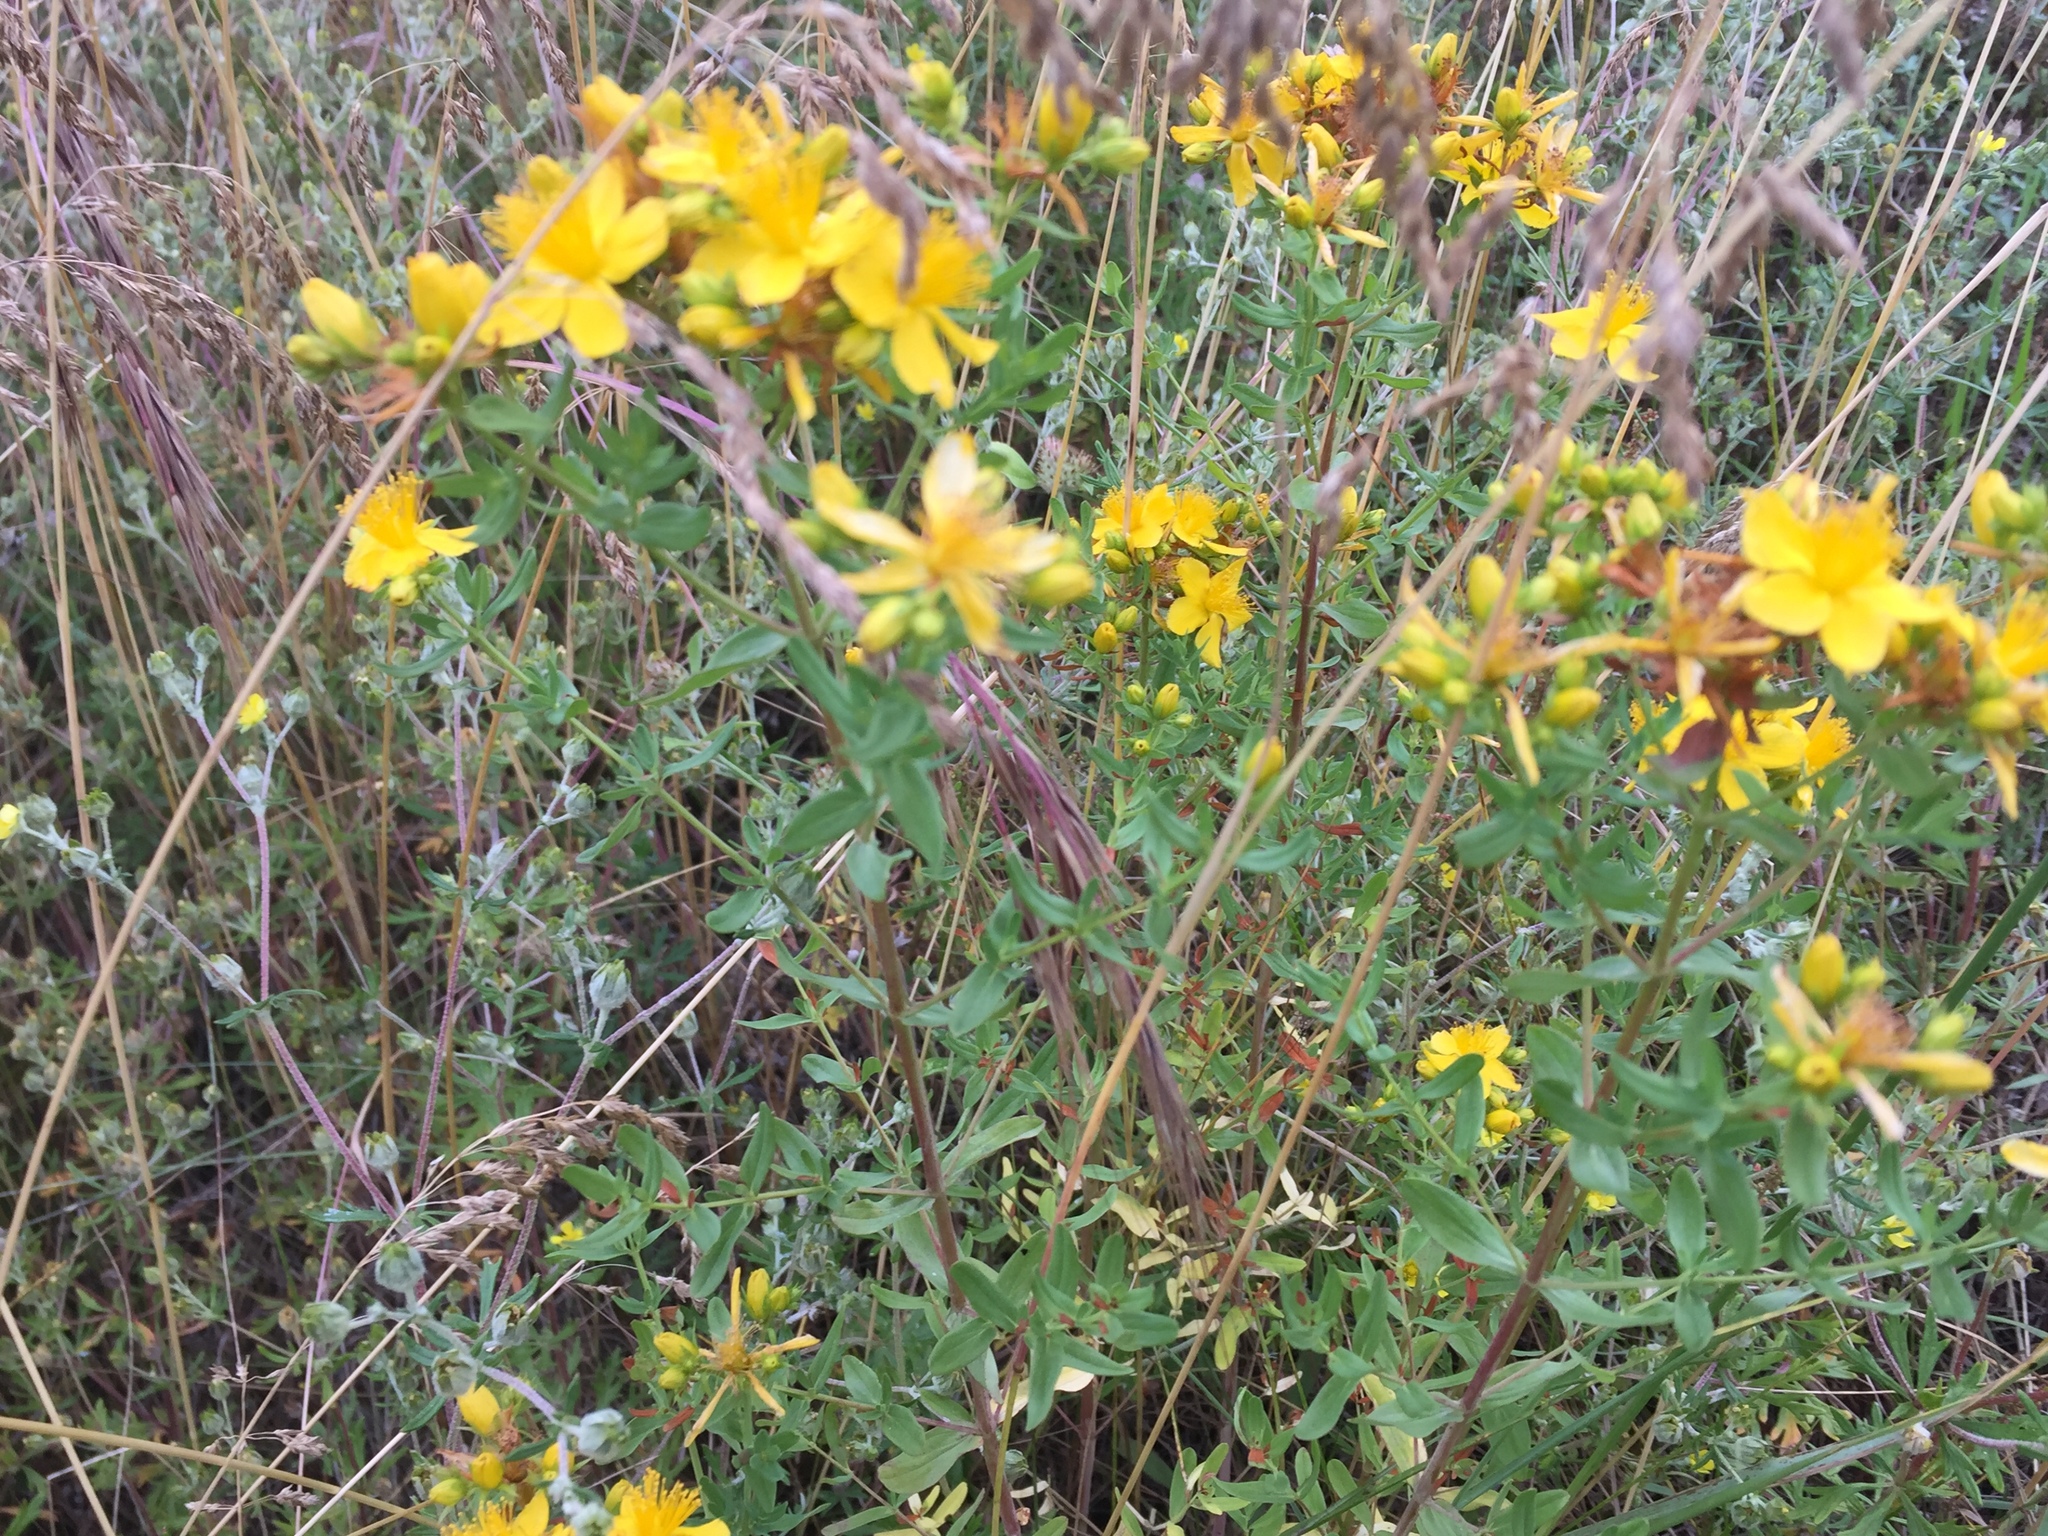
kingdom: Plantae
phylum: Tracheophyta
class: Magnoliopsida
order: Malpighiales
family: Hypericaceae
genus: Hypericum
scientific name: Hypericum perforatum
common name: Common st. johnswort
